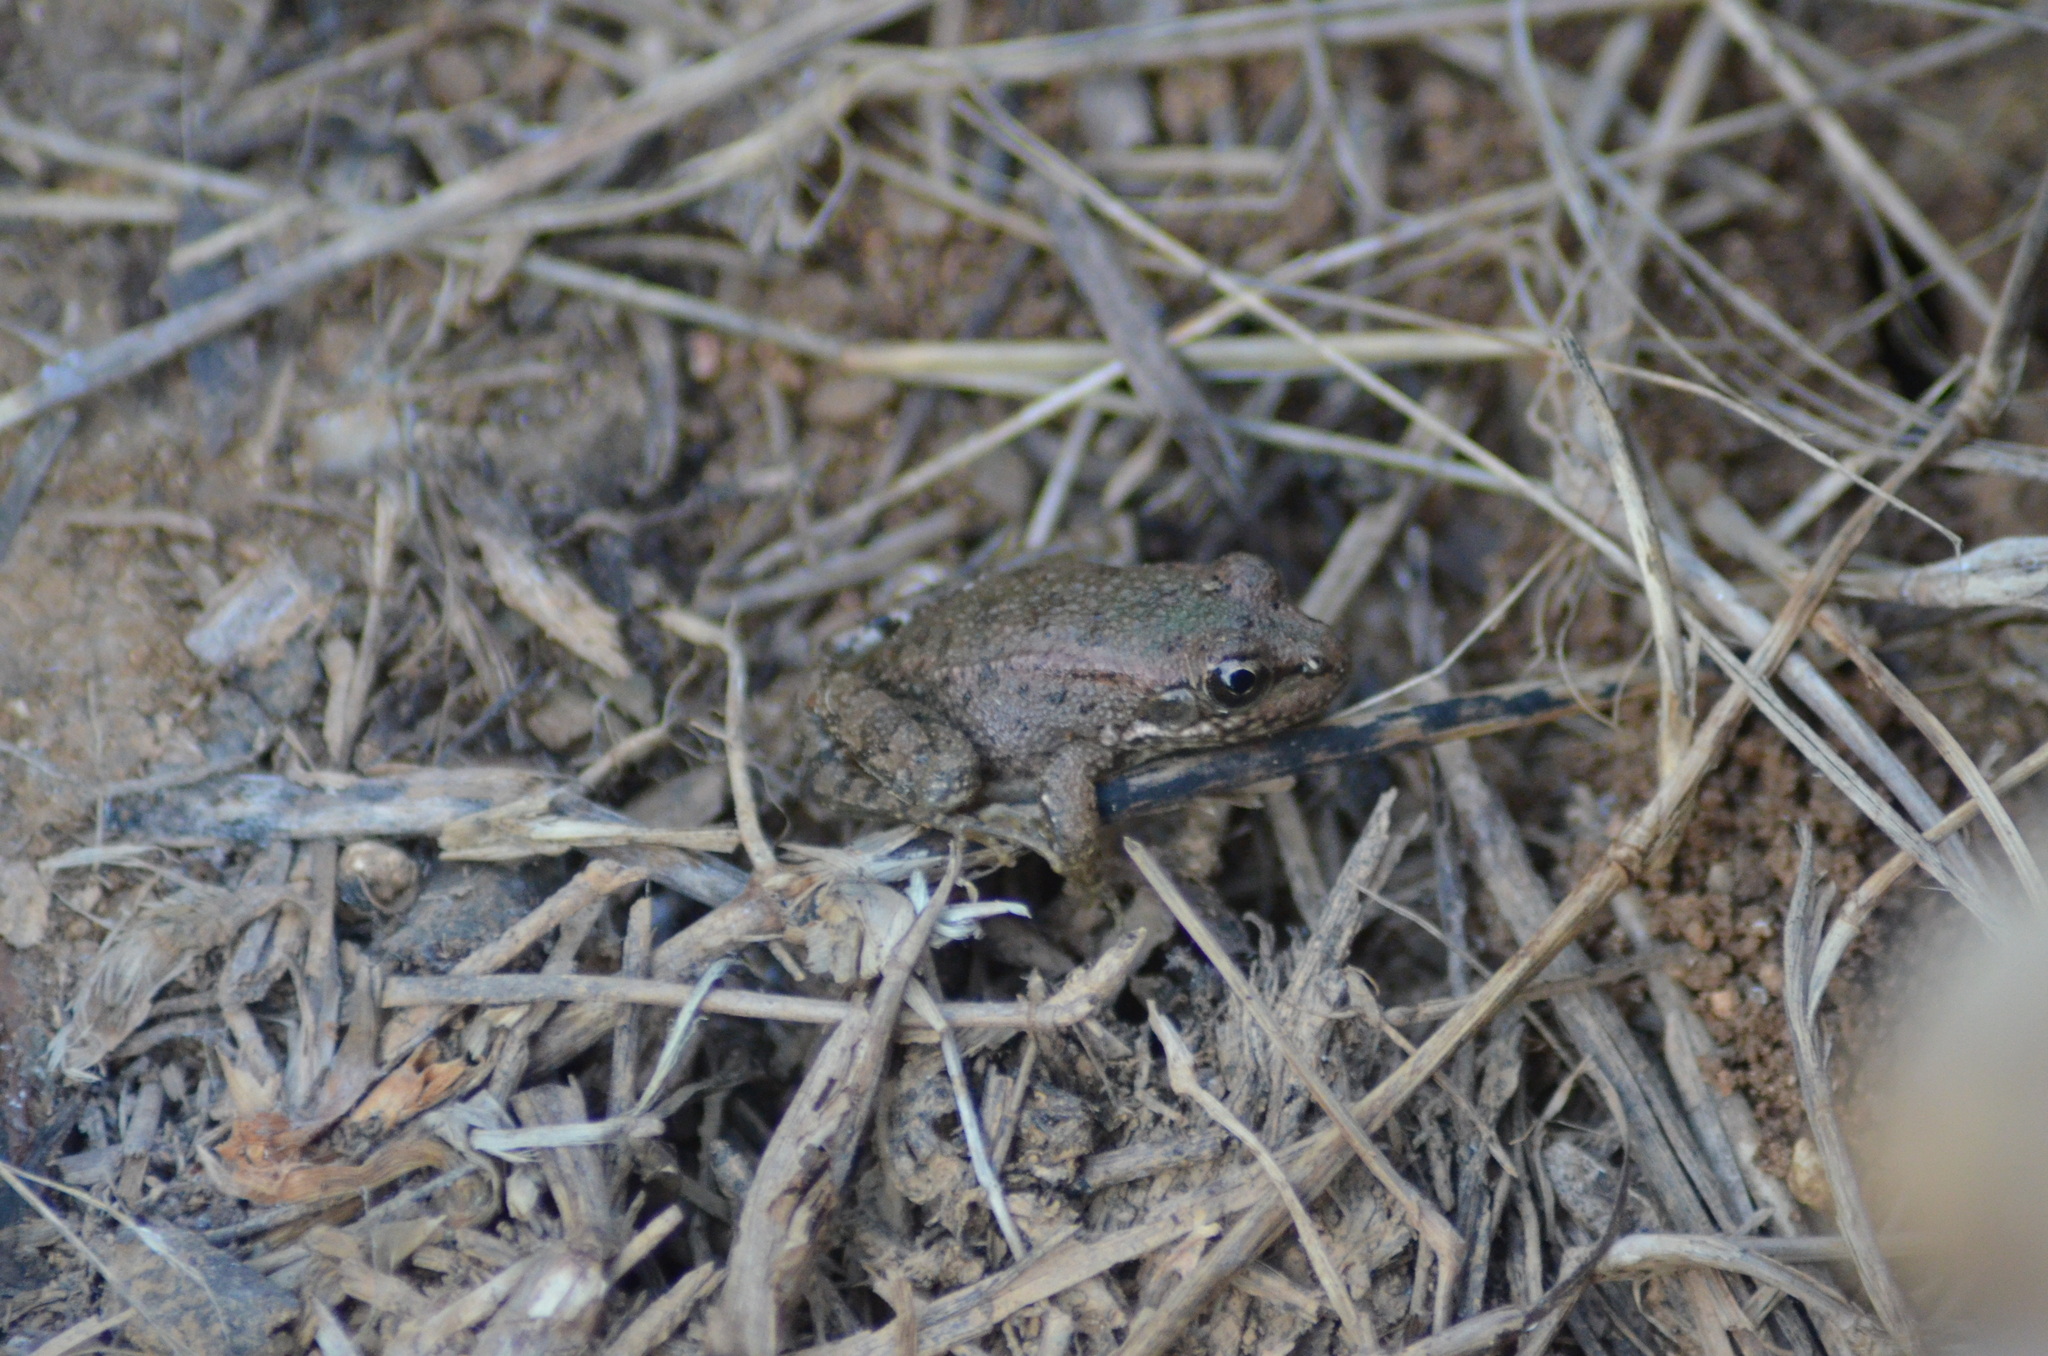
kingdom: Animalia
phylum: Chordata
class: Amphibia
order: Anura
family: Ranidae
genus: Pelophylax
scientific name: Pelophylax perezi
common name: Perez's frog
